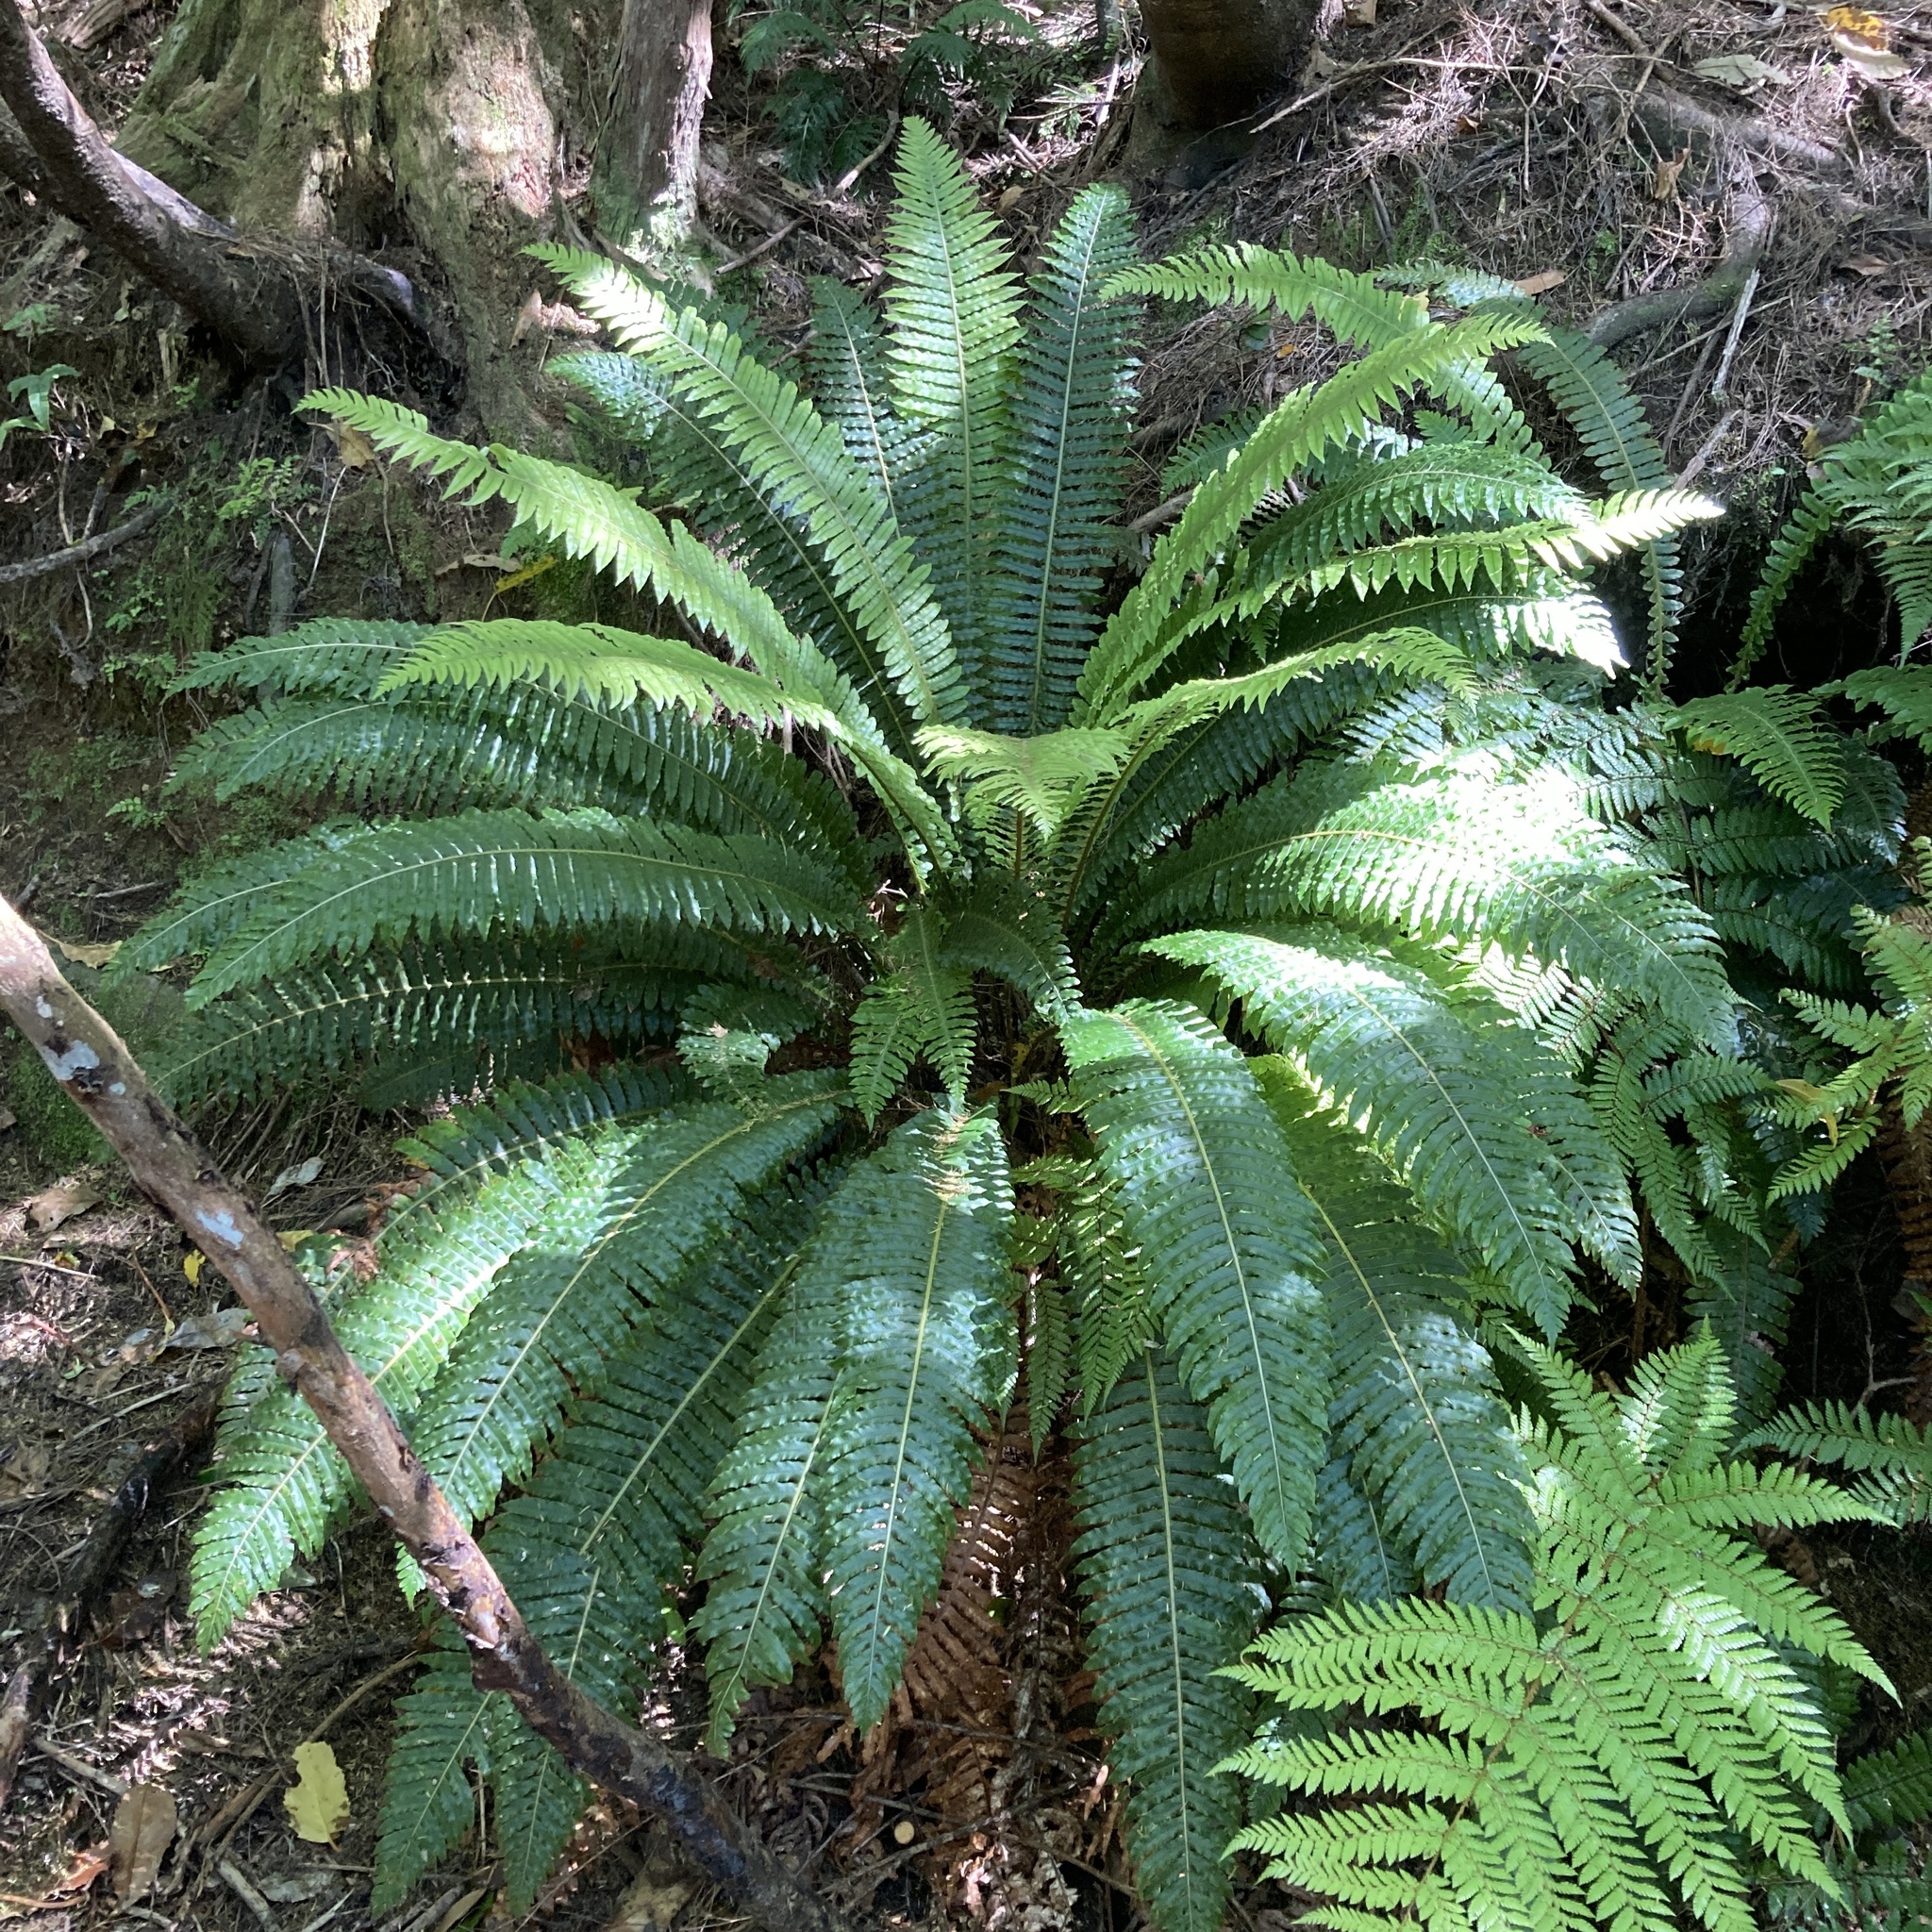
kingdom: Plantae
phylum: Tracheophyta
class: Polypodiopsida
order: Polypodiales
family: Blechnaceae
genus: Lomaria
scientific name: Lomaria discolor
